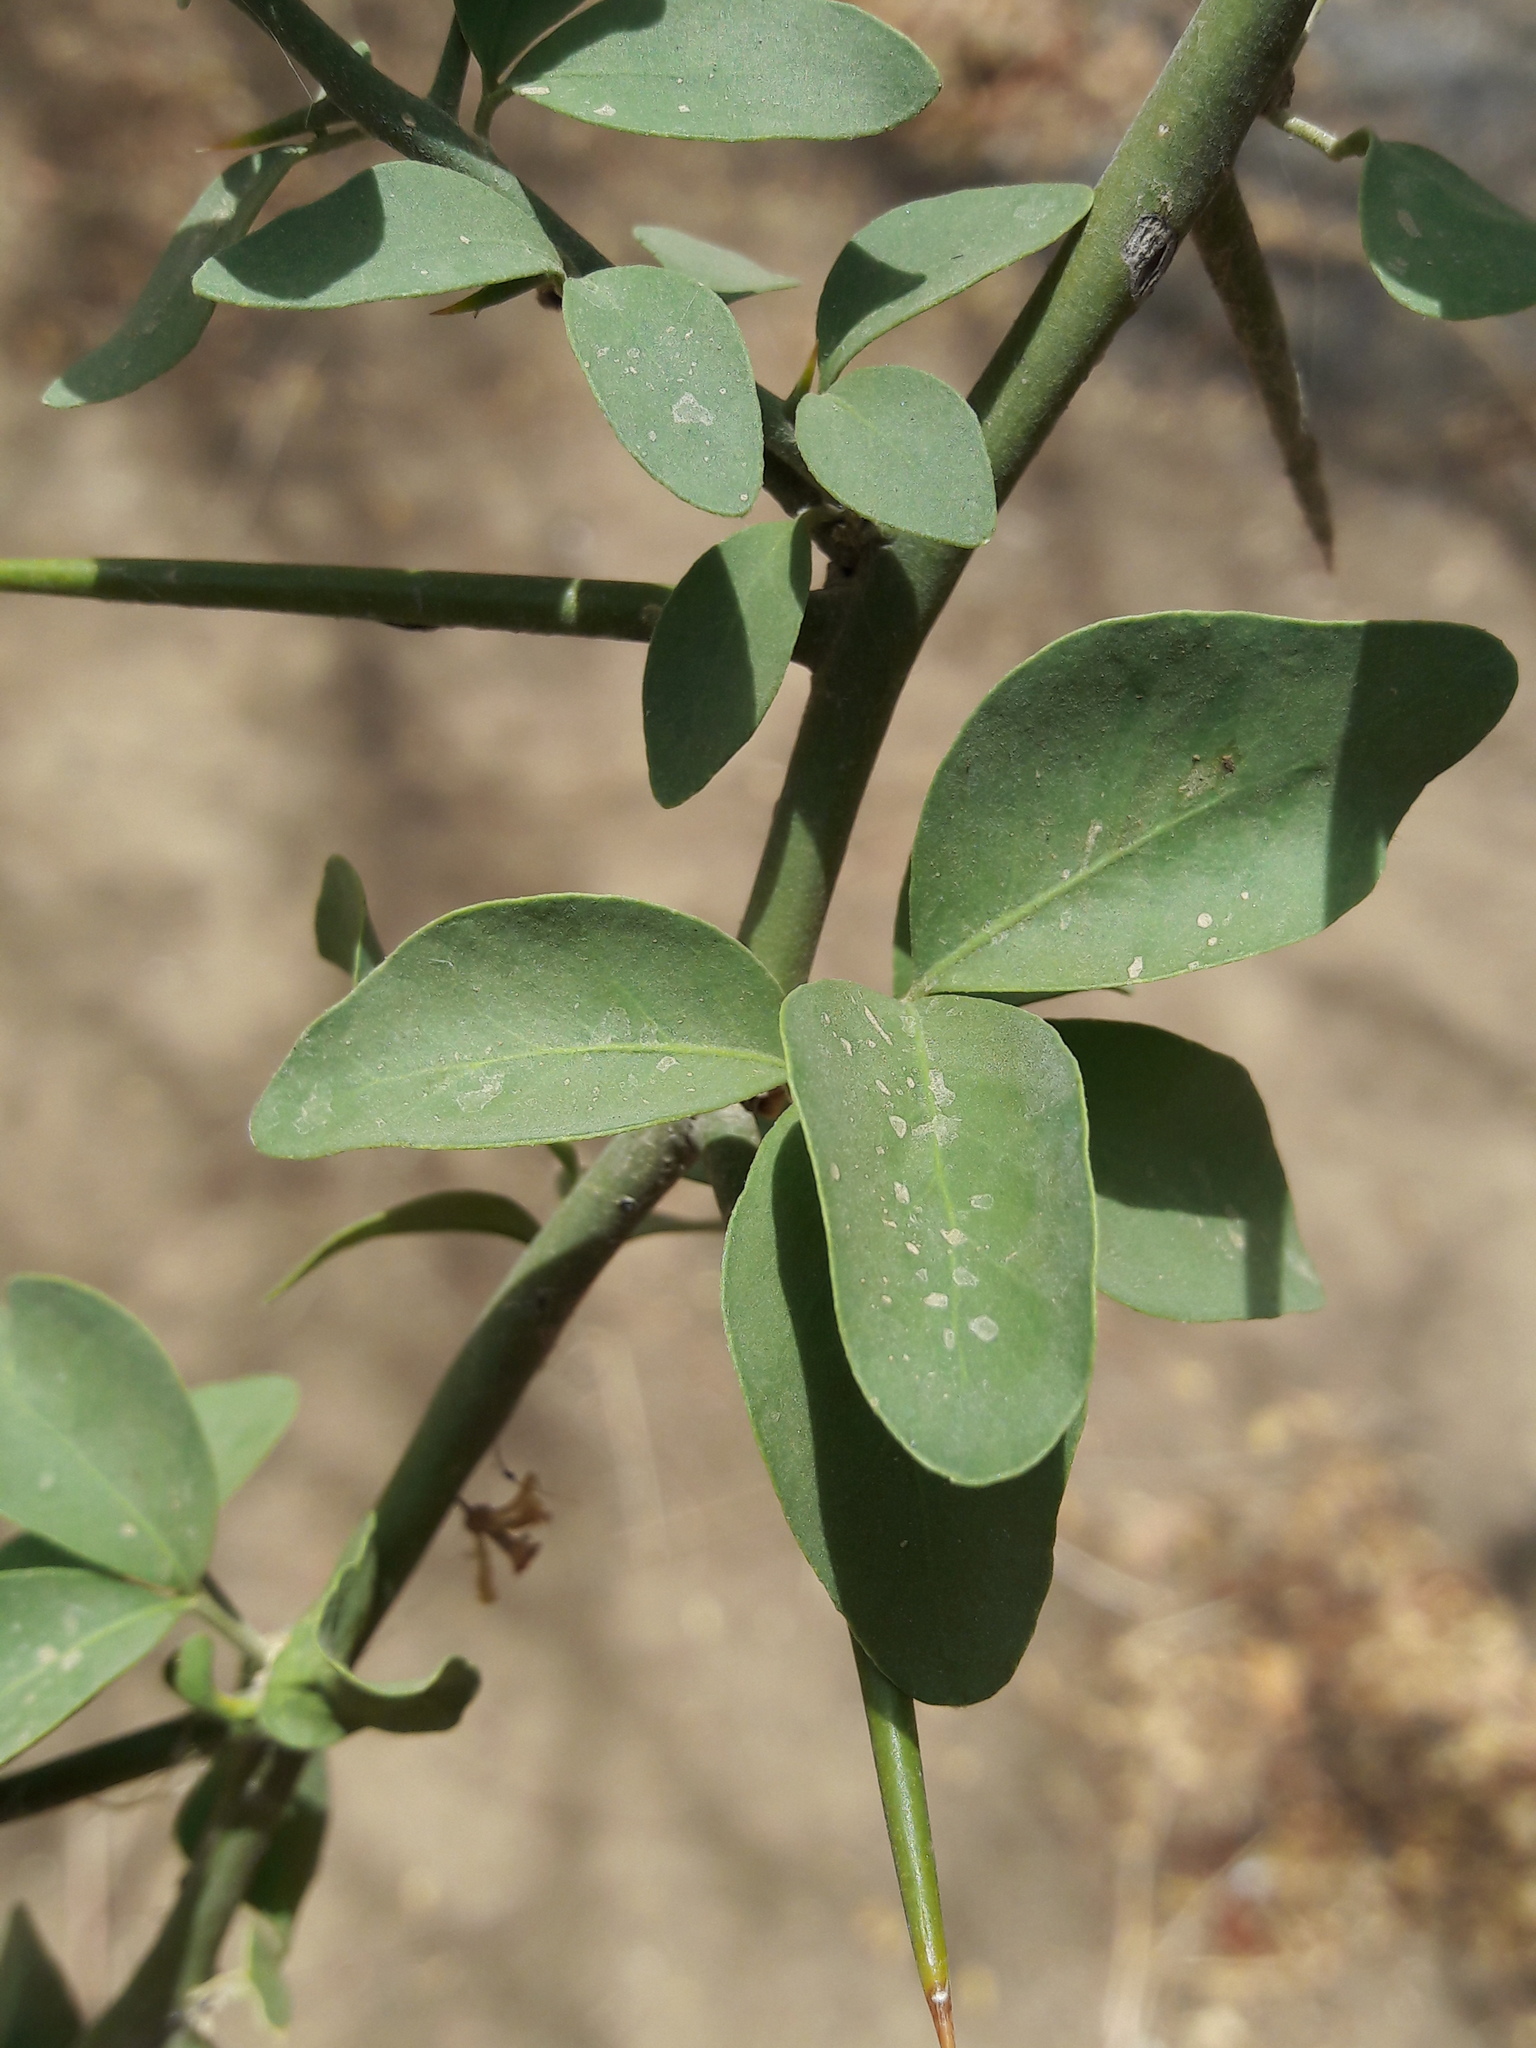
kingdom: Plantae
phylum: Tracheophyta
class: Magnoliopsida
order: Zygophyllales
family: Zygophyllaceae
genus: Balanites
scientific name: Balanites aegyptiaca
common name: Balanites
